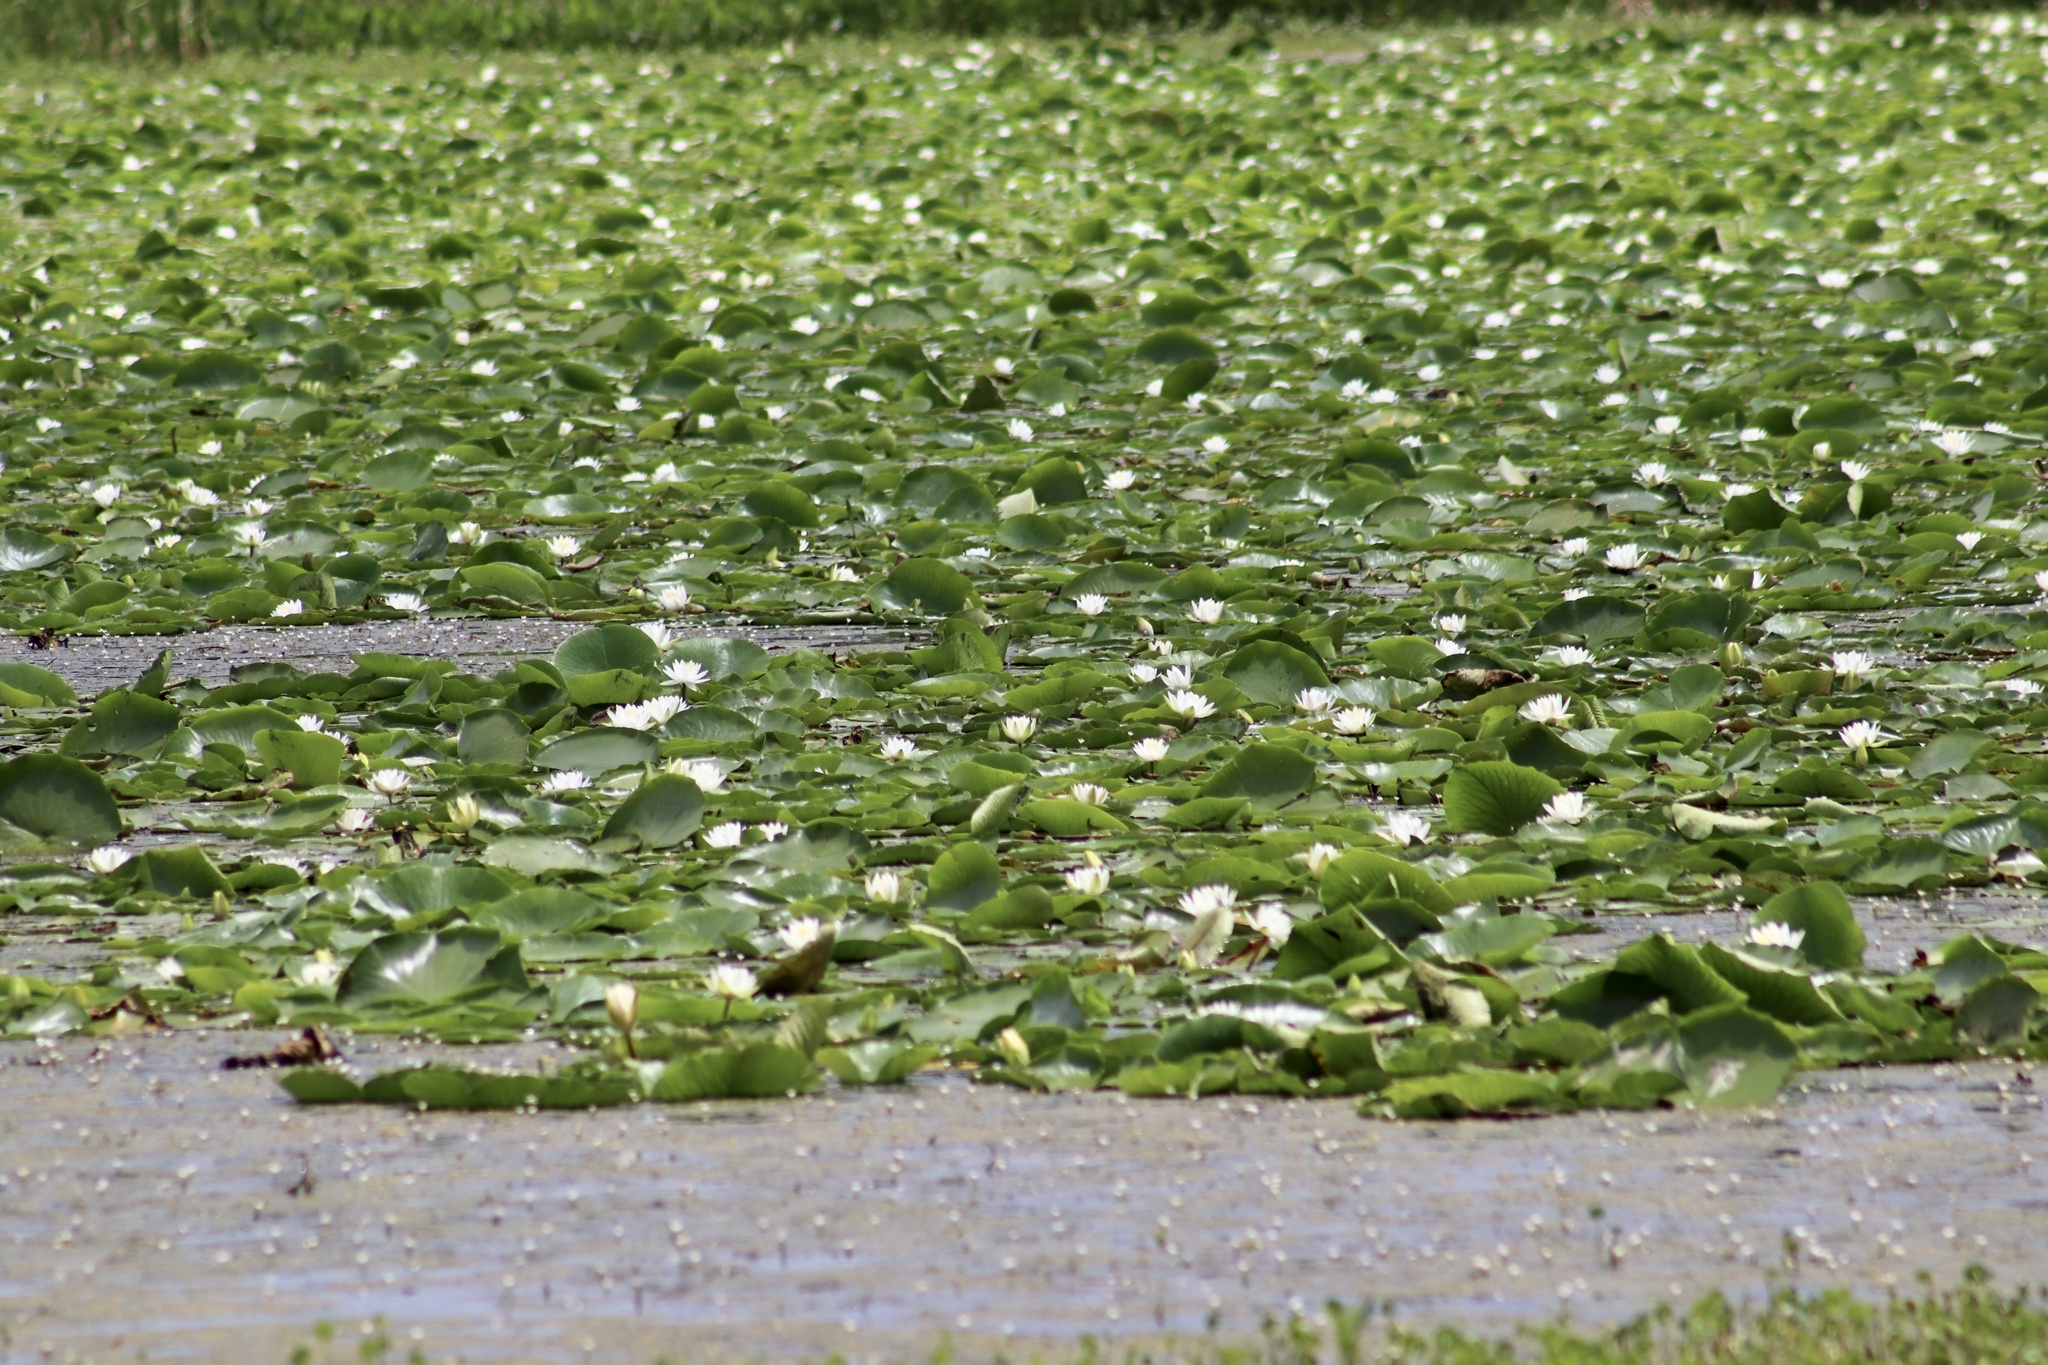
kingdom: Plantae
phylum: Tracheophyta
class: Magnoliopsida
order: Nymphaeales
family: Nymphaeaceae
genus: Nymphaea
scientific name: Nymphaea odorata
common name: Fragrant water-lily
